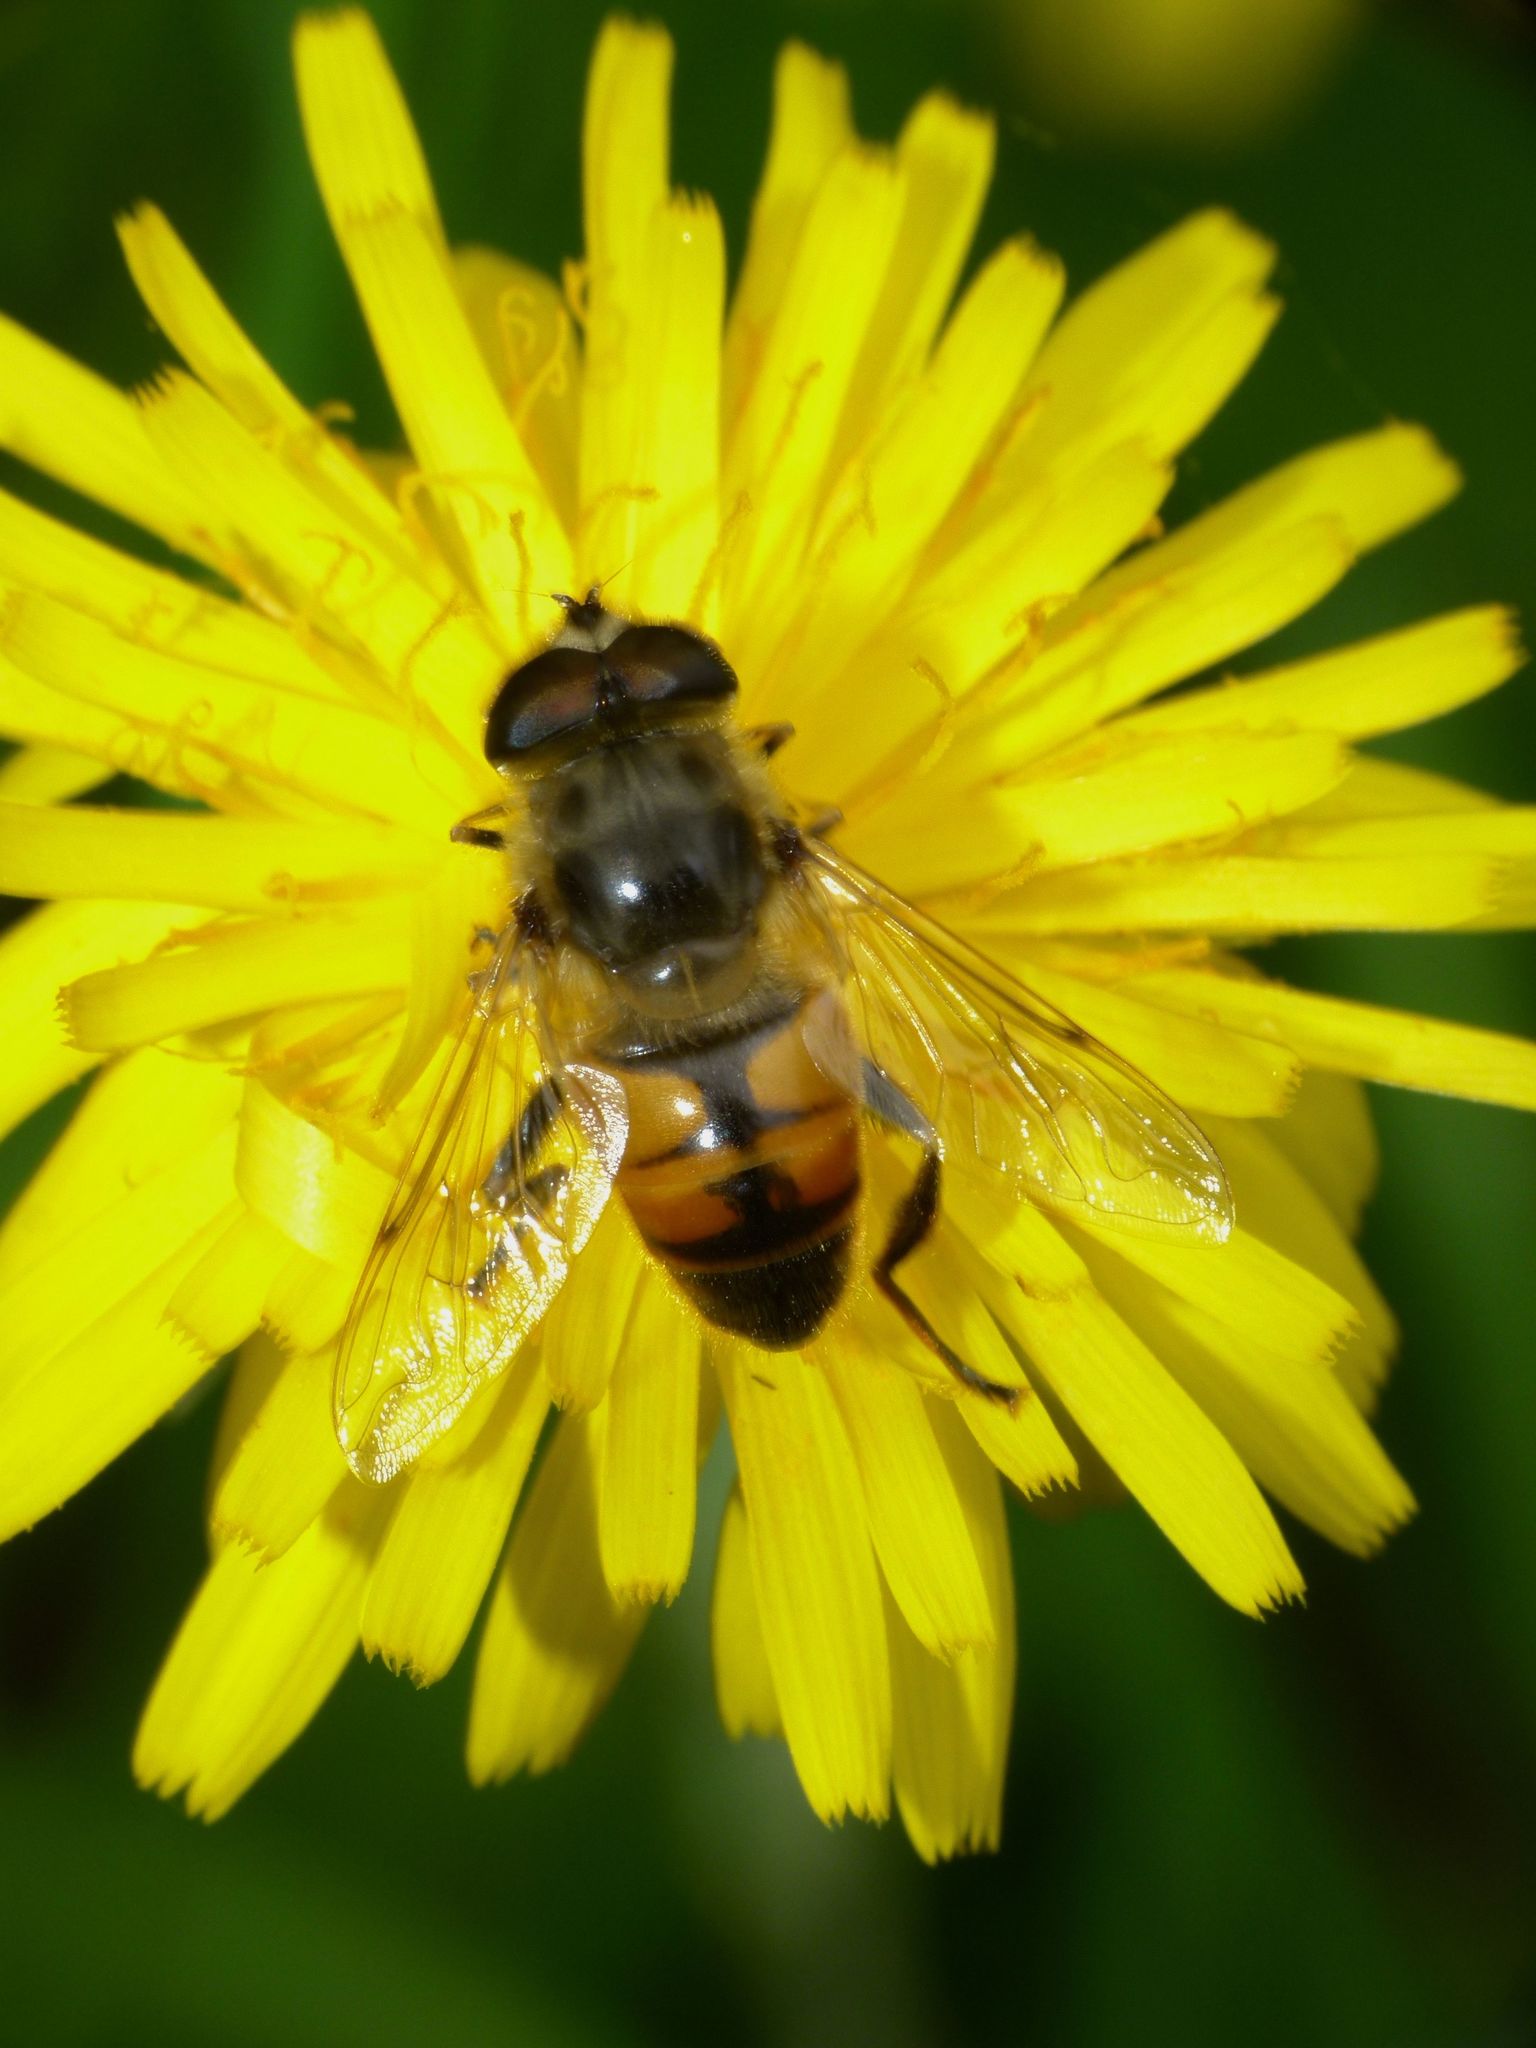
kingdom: Animalia
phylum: Arthropoda
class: Insecta
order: Diptera
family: Syrphidae
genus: Eristalis
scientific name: Eristalis tenax
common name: Drone fly
